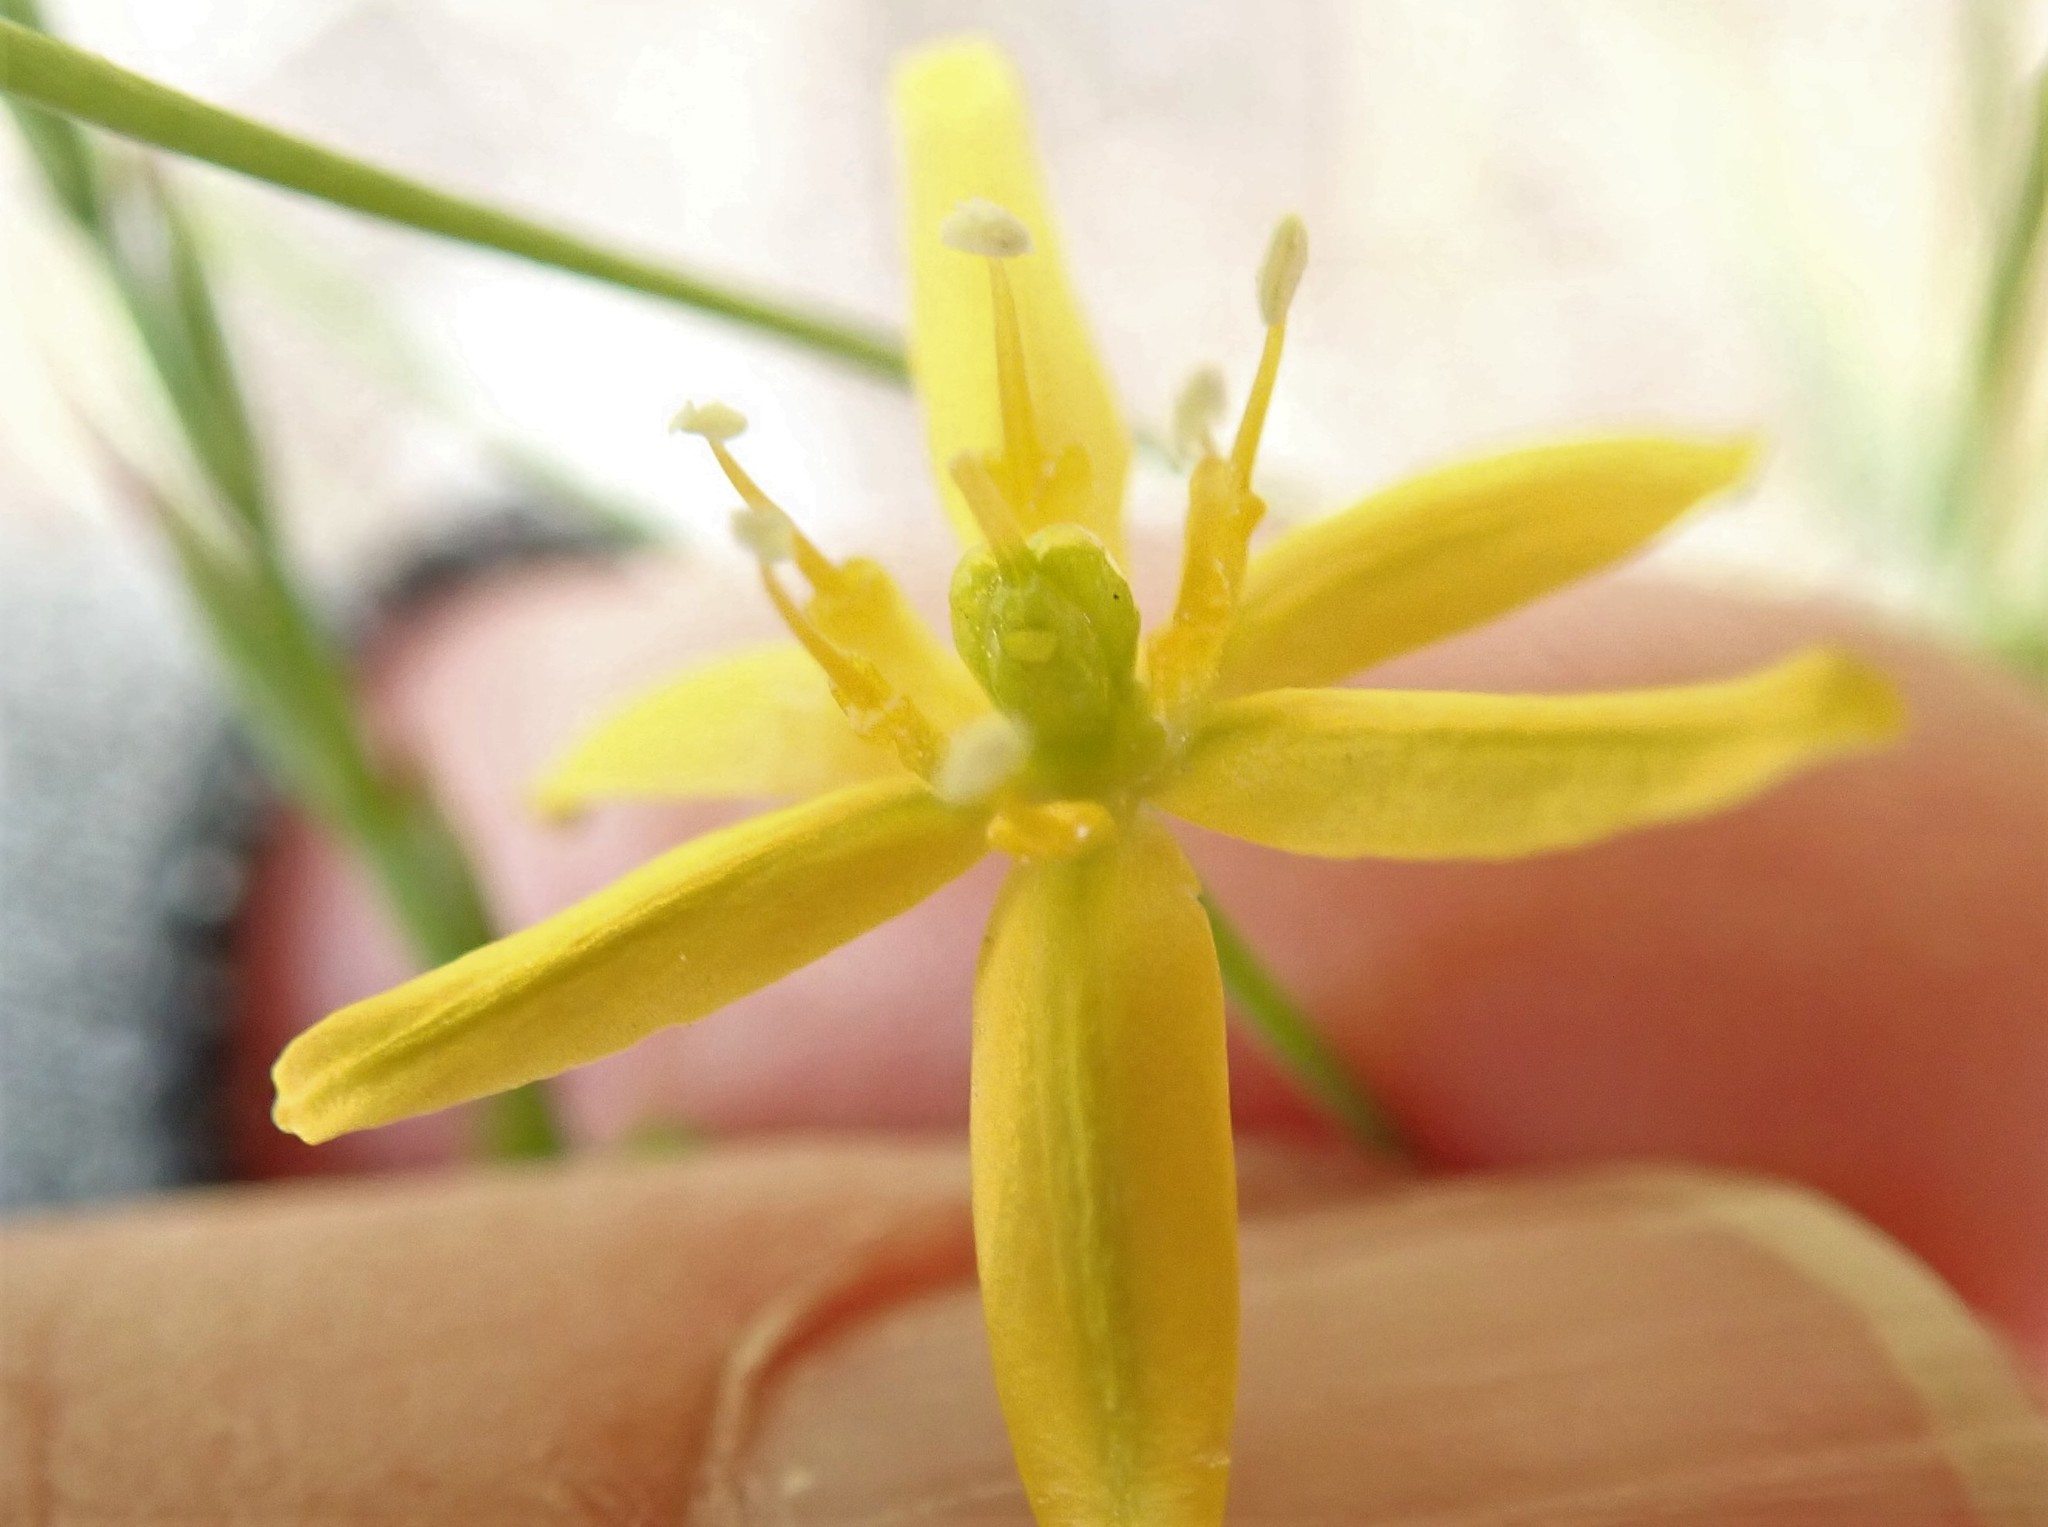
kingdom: Plantae
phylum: Tracheophyta
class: Liliopsida
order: Asparagales
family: Asparagaceae
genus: Bloomeria
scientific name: Bloomeria clevelandii
